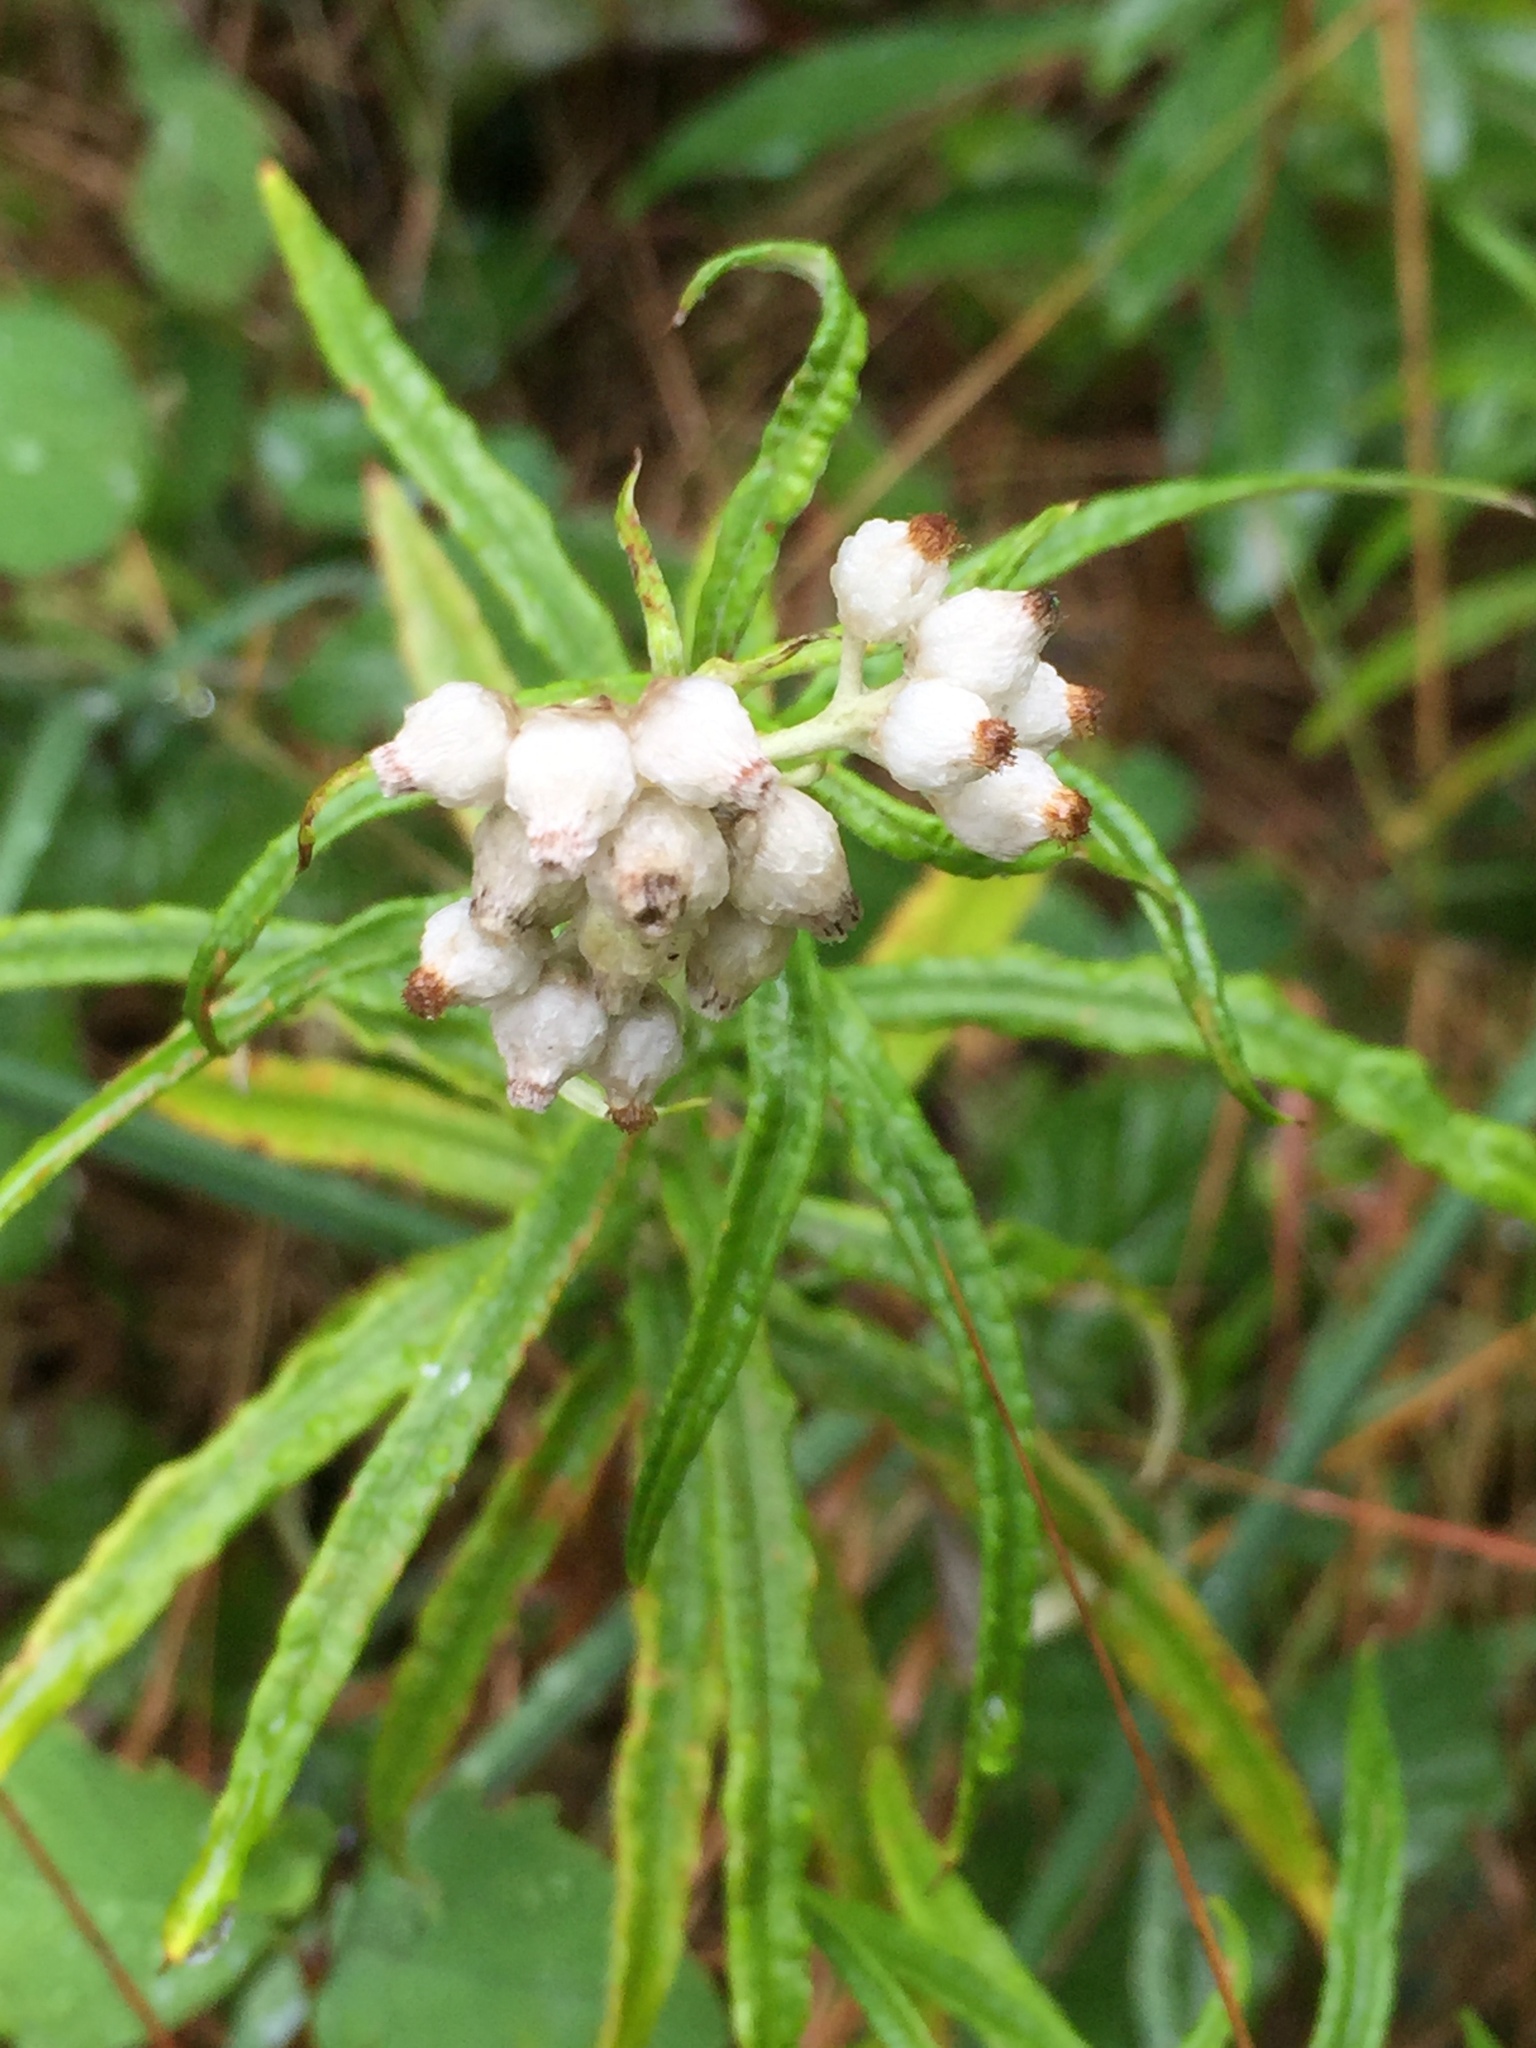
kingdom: Plantae
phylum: Tracheophyta
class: Magnoliopsida
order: Asterales
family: Asteraceae
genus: Anaphalis
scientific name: Anaphalis margaritacea
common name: Pearly everlasting
